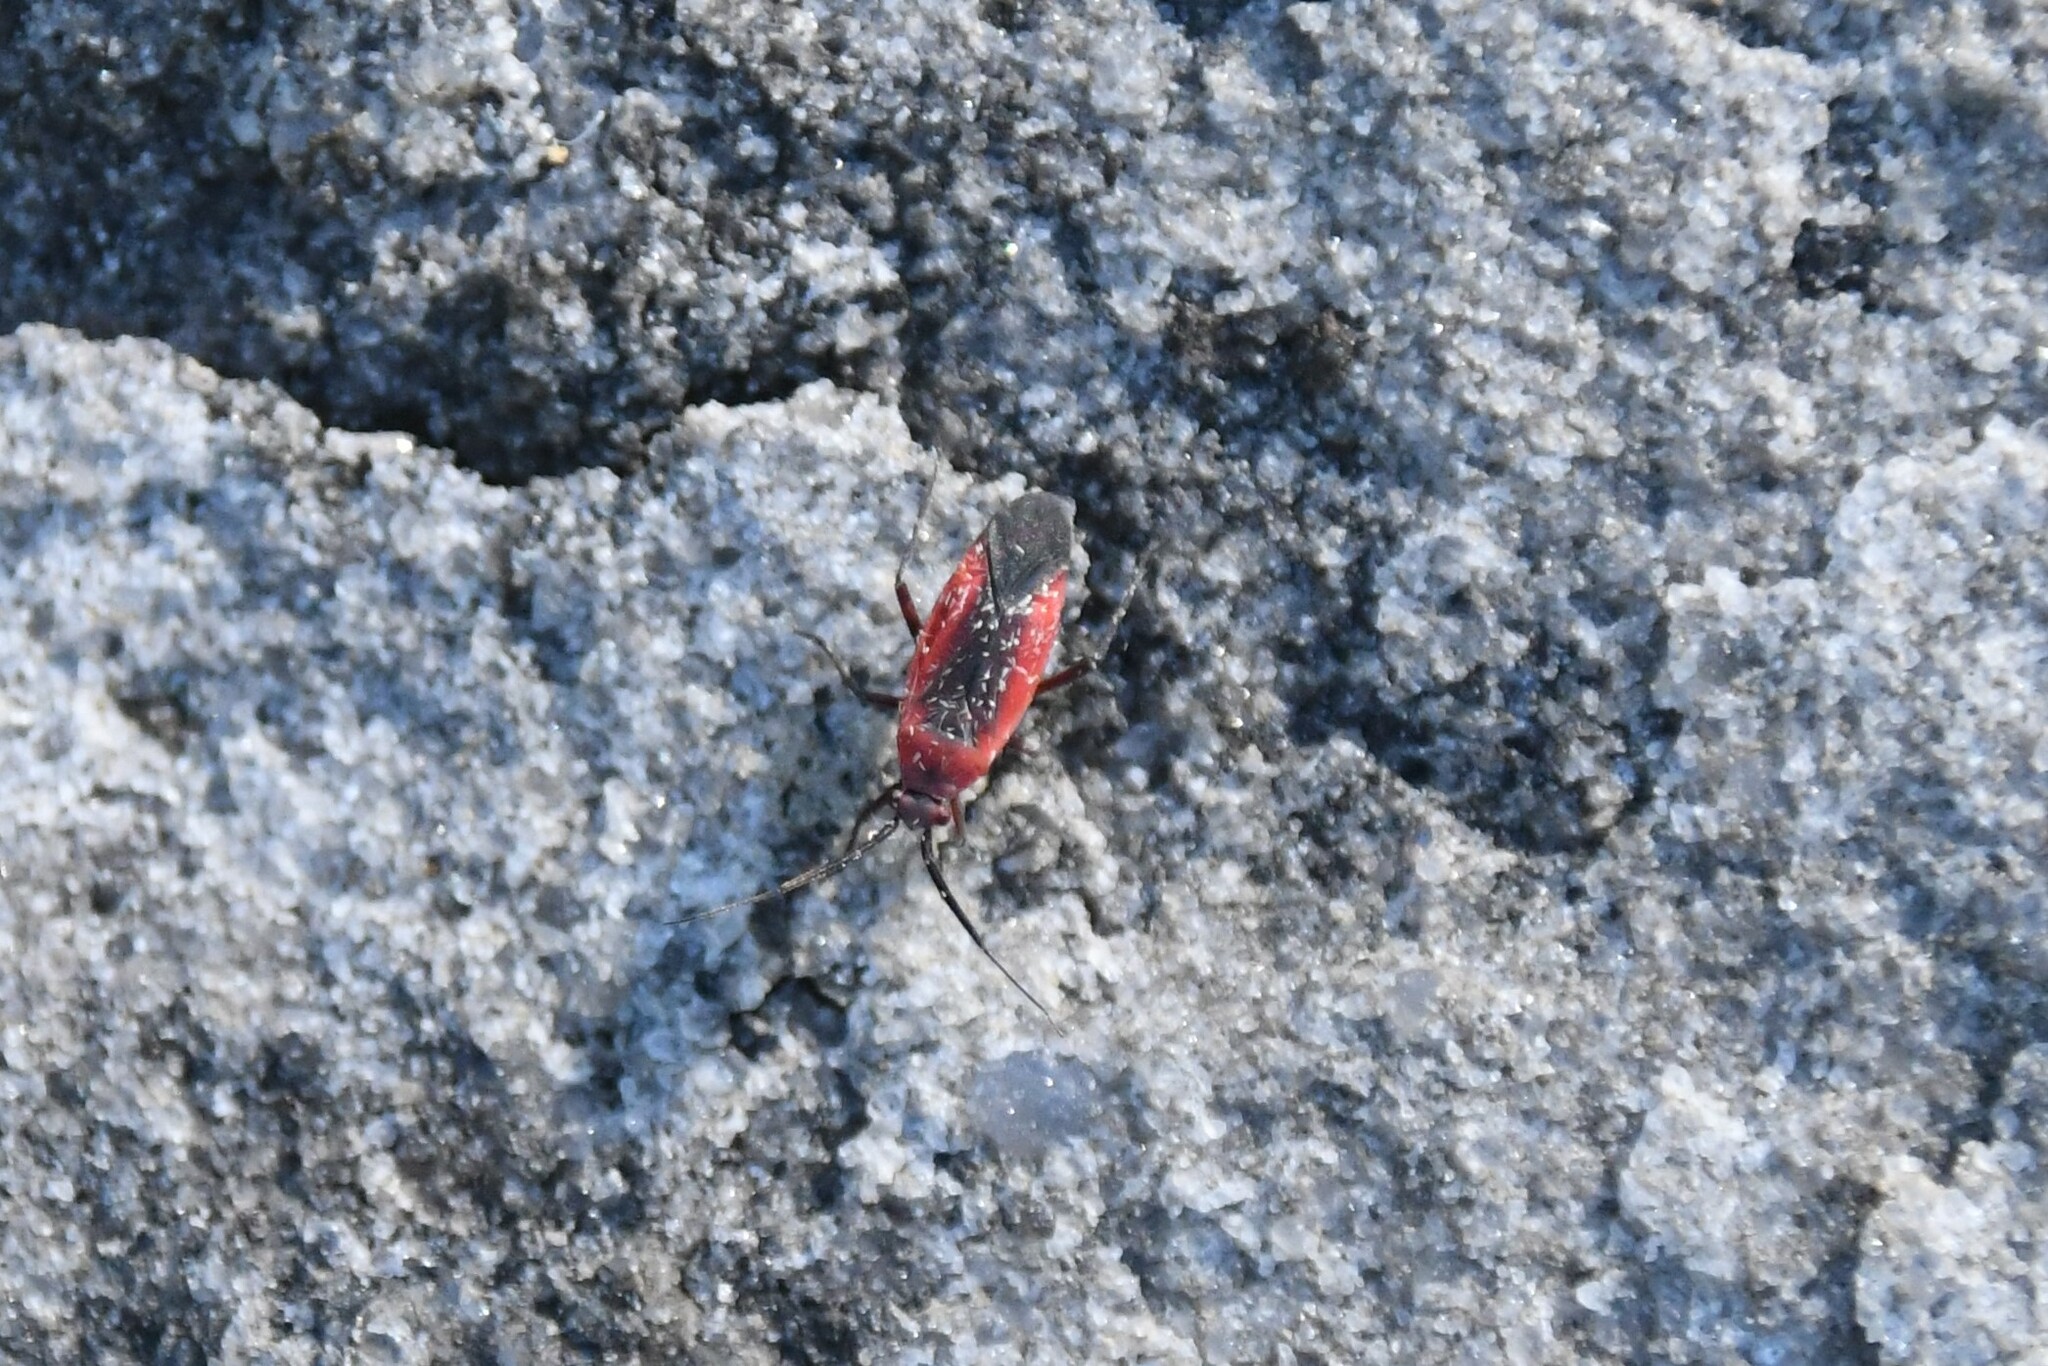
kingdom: Animalia
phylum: Arthropoda
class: Insecta
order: Hemiptera
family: Miridae
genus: Lopidea
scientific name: Lopidea instabilis
